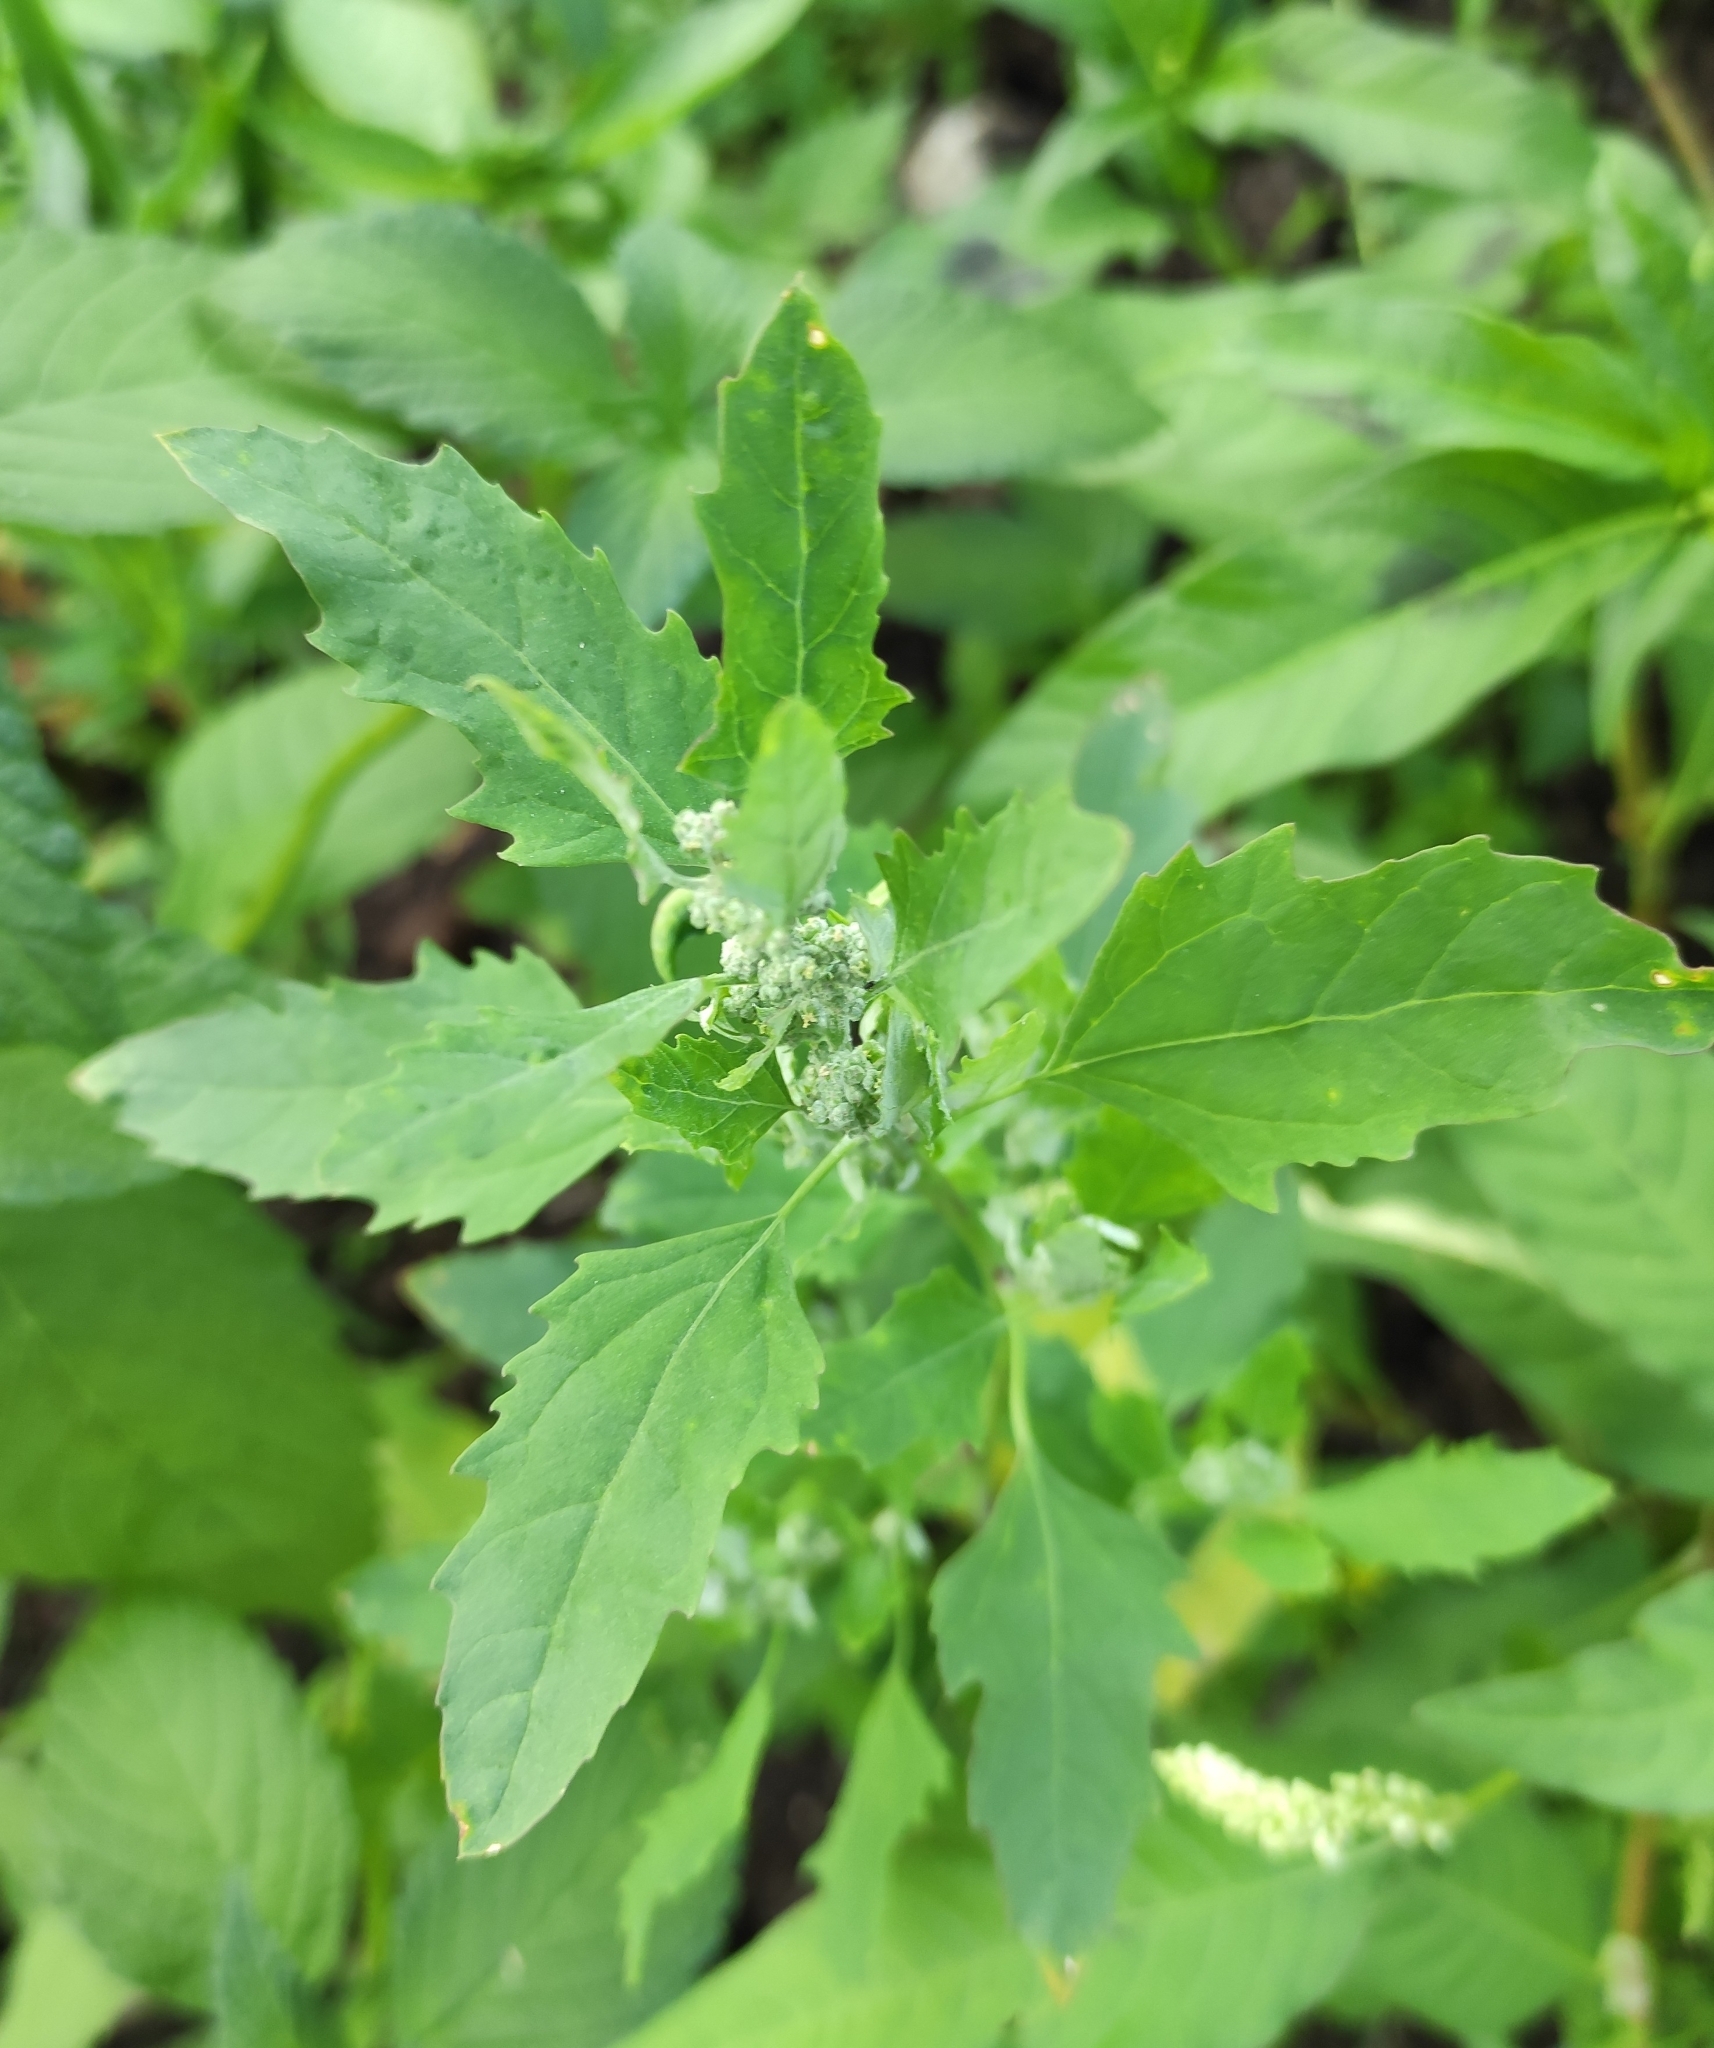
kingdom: Plantae
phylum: Tracheophyta
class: Magnoliopsida
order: Caryophyllales
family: Amaranthaceae
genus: Chenopodium
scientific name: Chenopodium album
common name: Fat-hen
